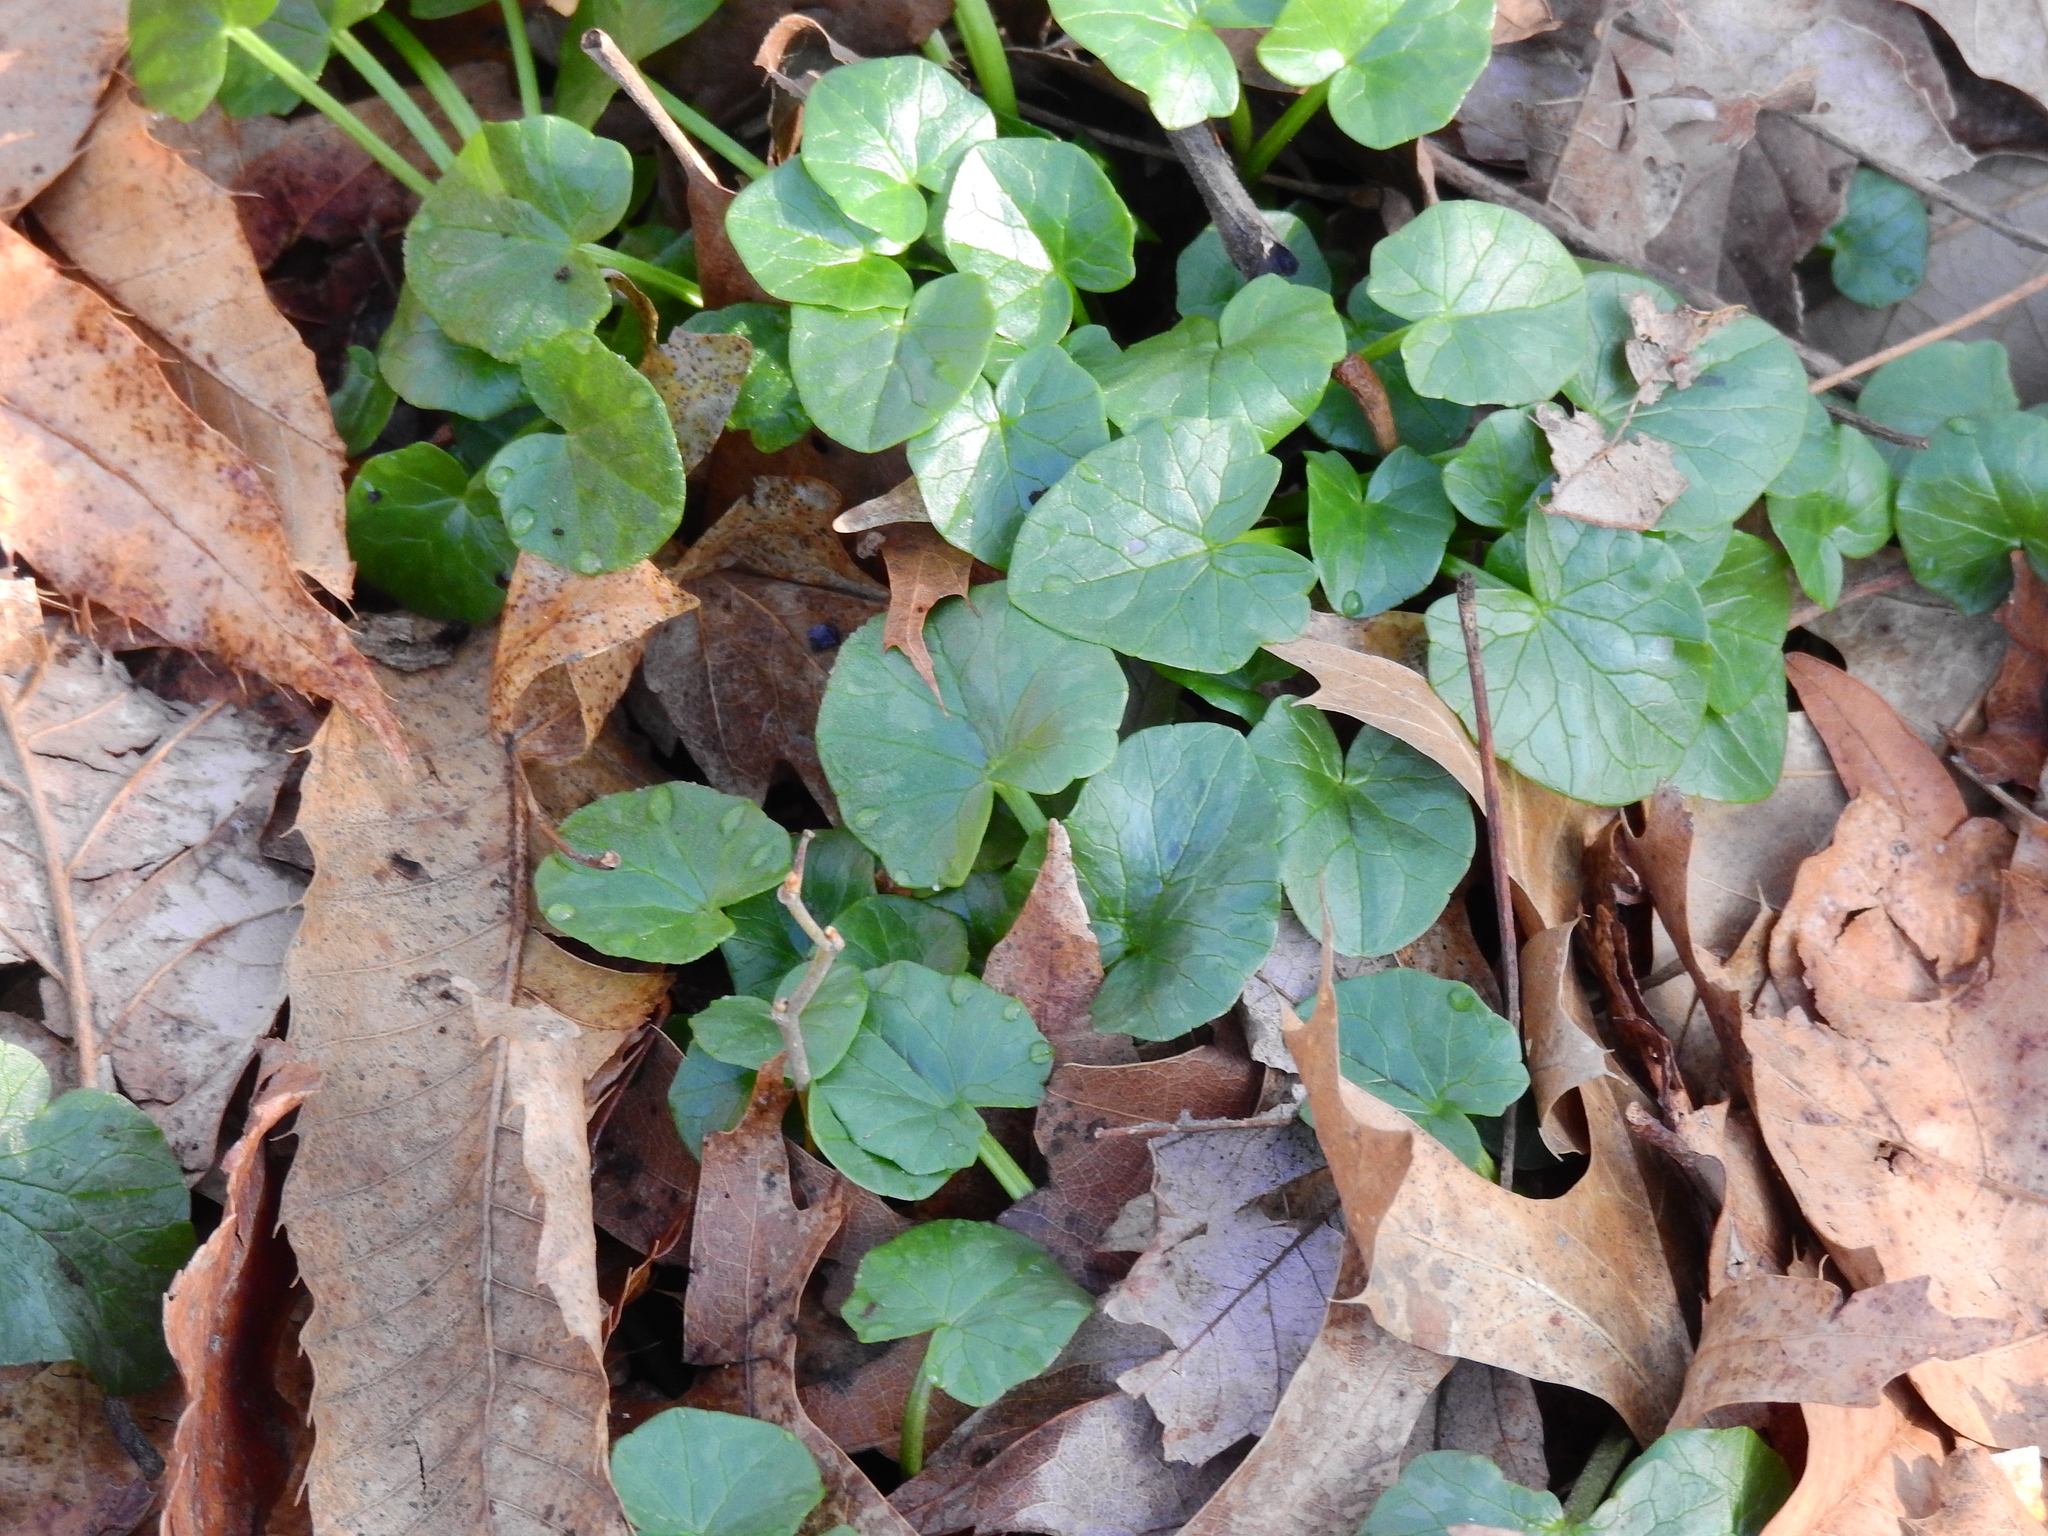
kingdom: Plantae
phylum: Tracheophyta
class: Magnoliopsida
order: Ranunculales
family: Ranunculaceae
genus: Ficaria
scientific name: Ficaria verna
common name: Lesser celandine
